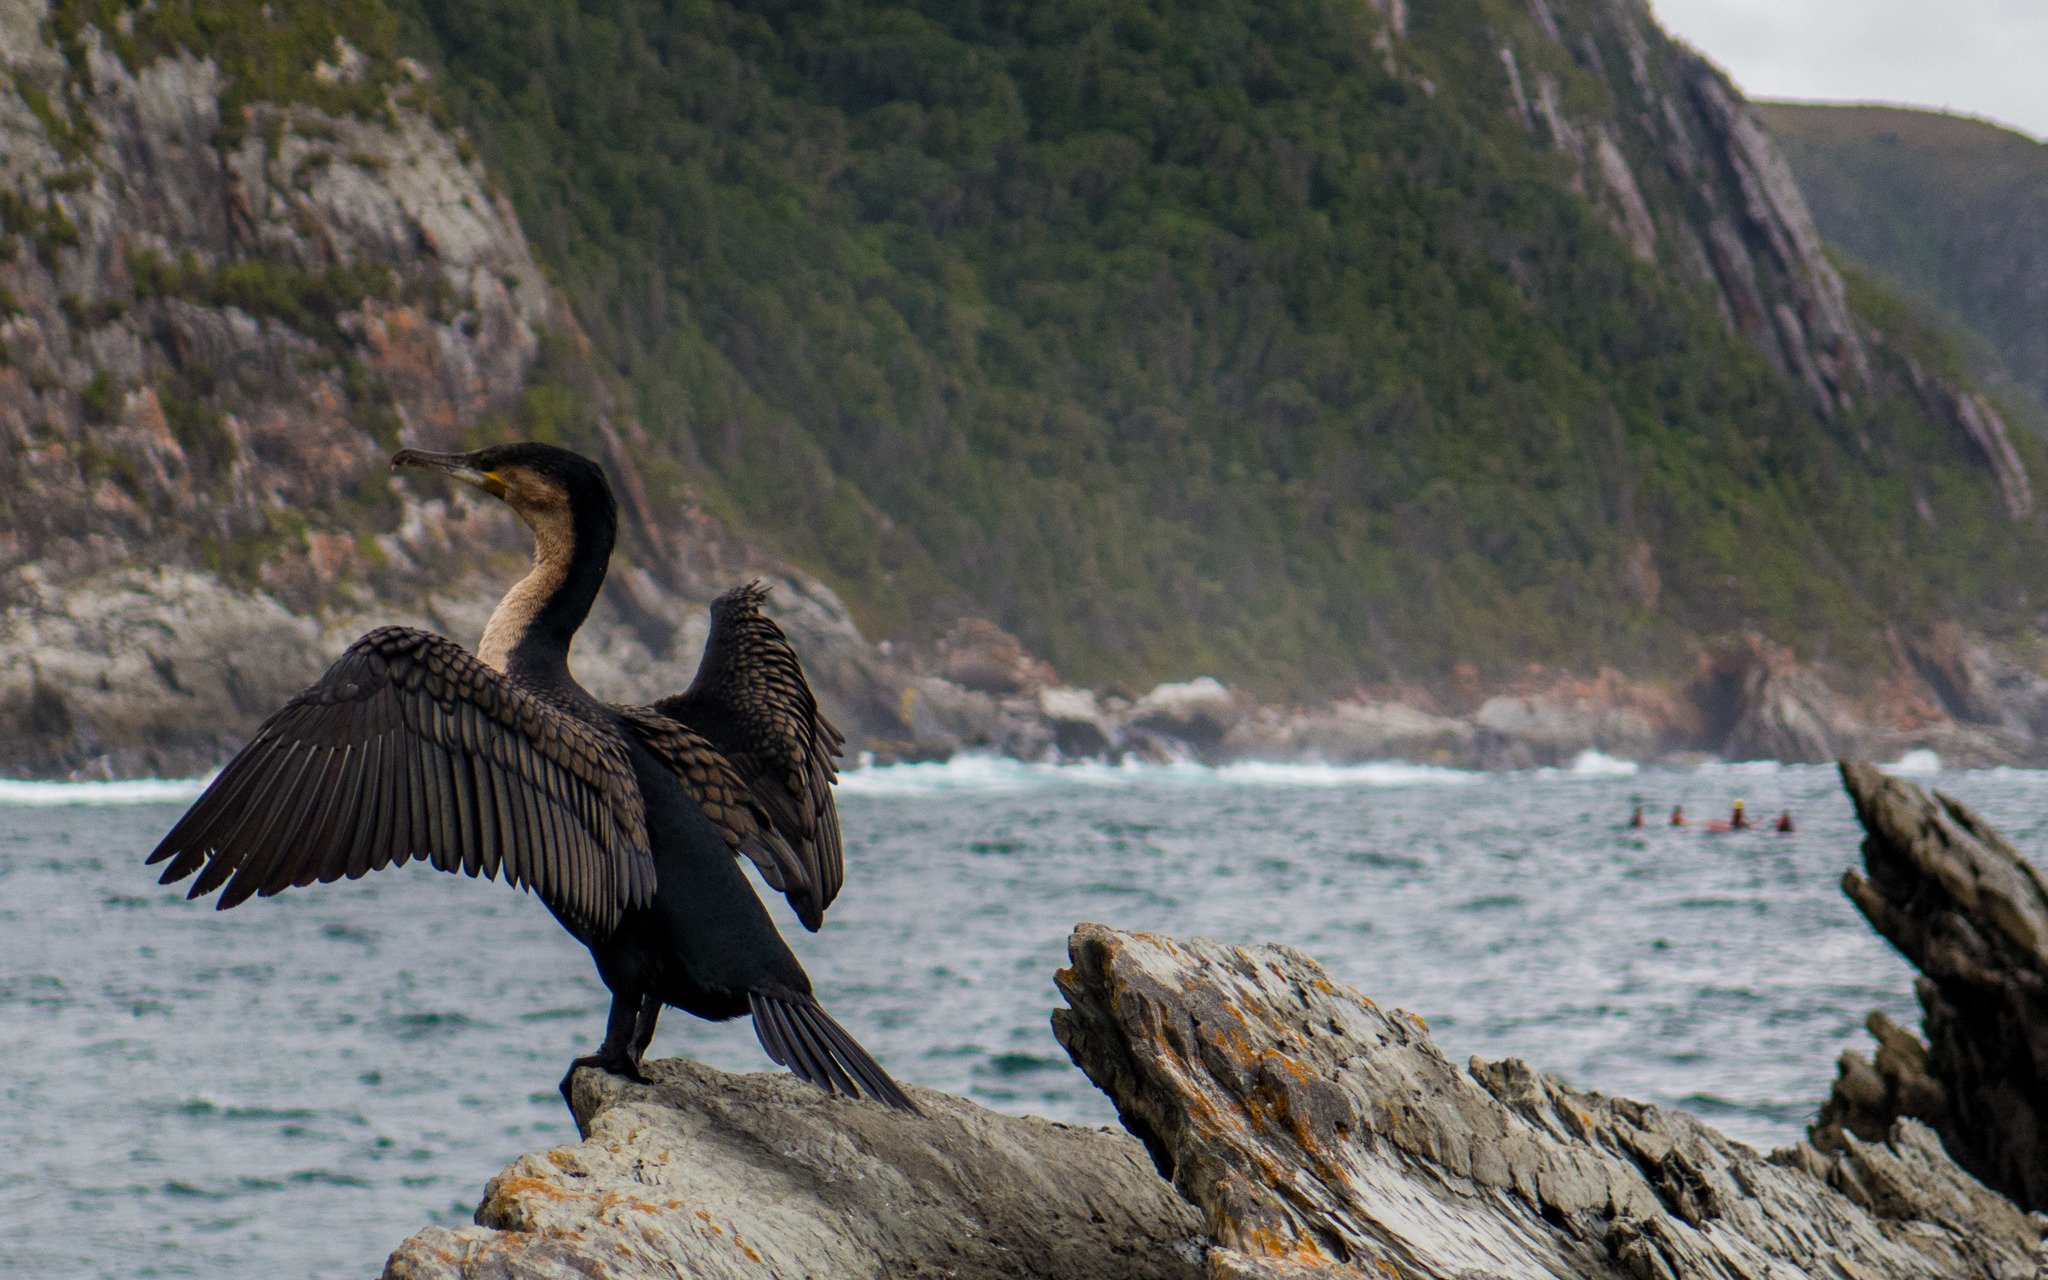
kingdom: Animalia
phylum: Chordata
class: Aves
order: Suliformes
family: Phalacrocoracidae
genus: Phalacrocorax
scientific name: Phalacrocorax carbo
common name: Great cormorant
